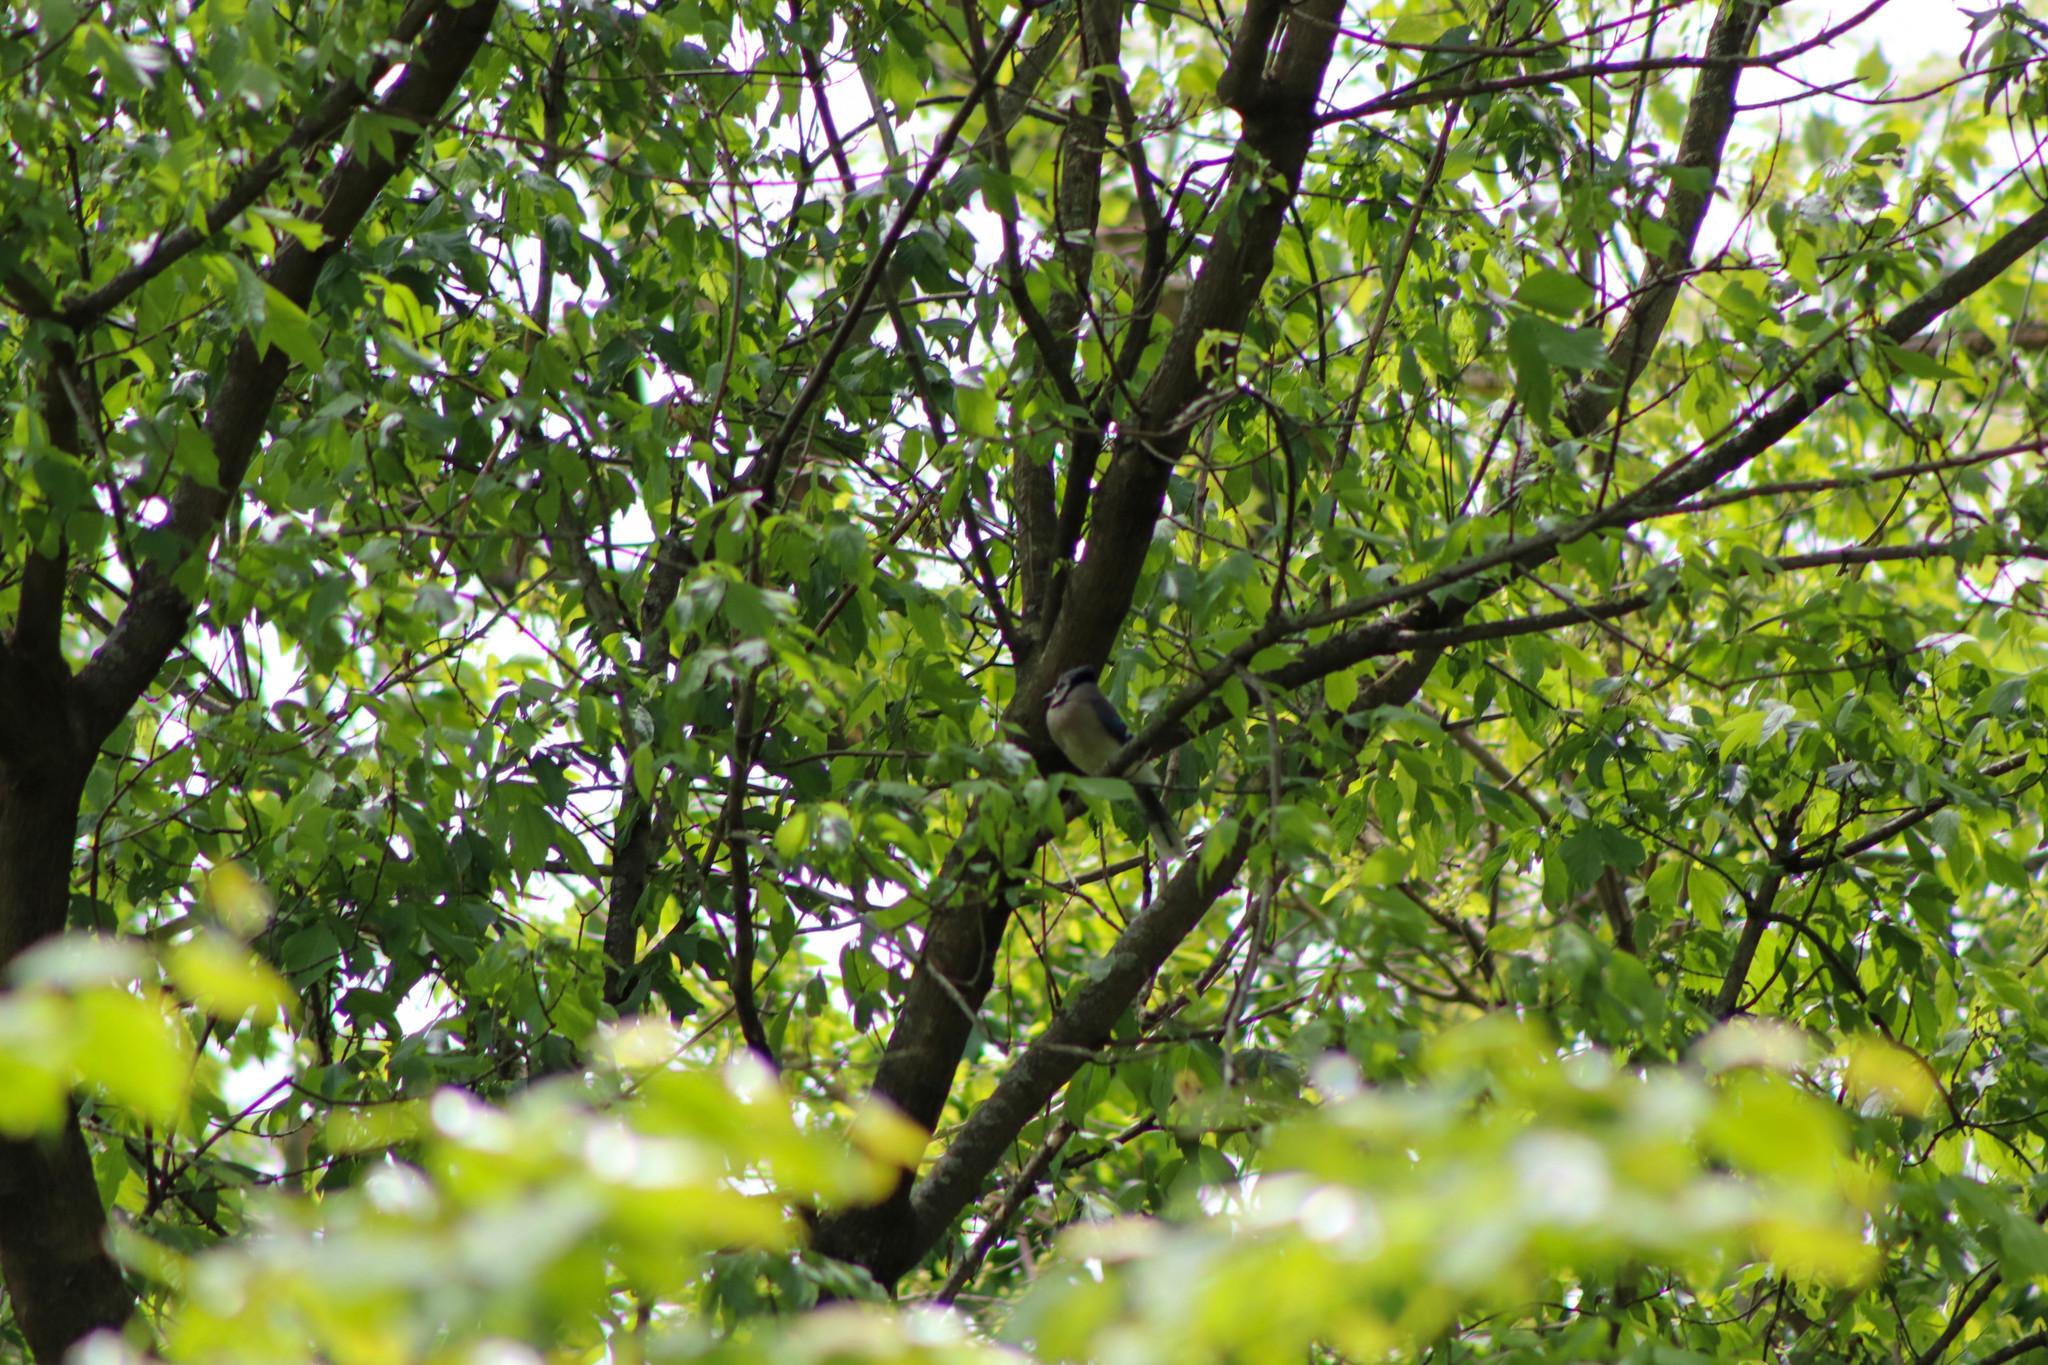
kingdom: Animalia
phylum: Chordata
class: Aves
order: Passeriformes
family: Corvidae
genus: Cyanocitta
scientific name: Cyanocitta cristata
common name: Blue jay
